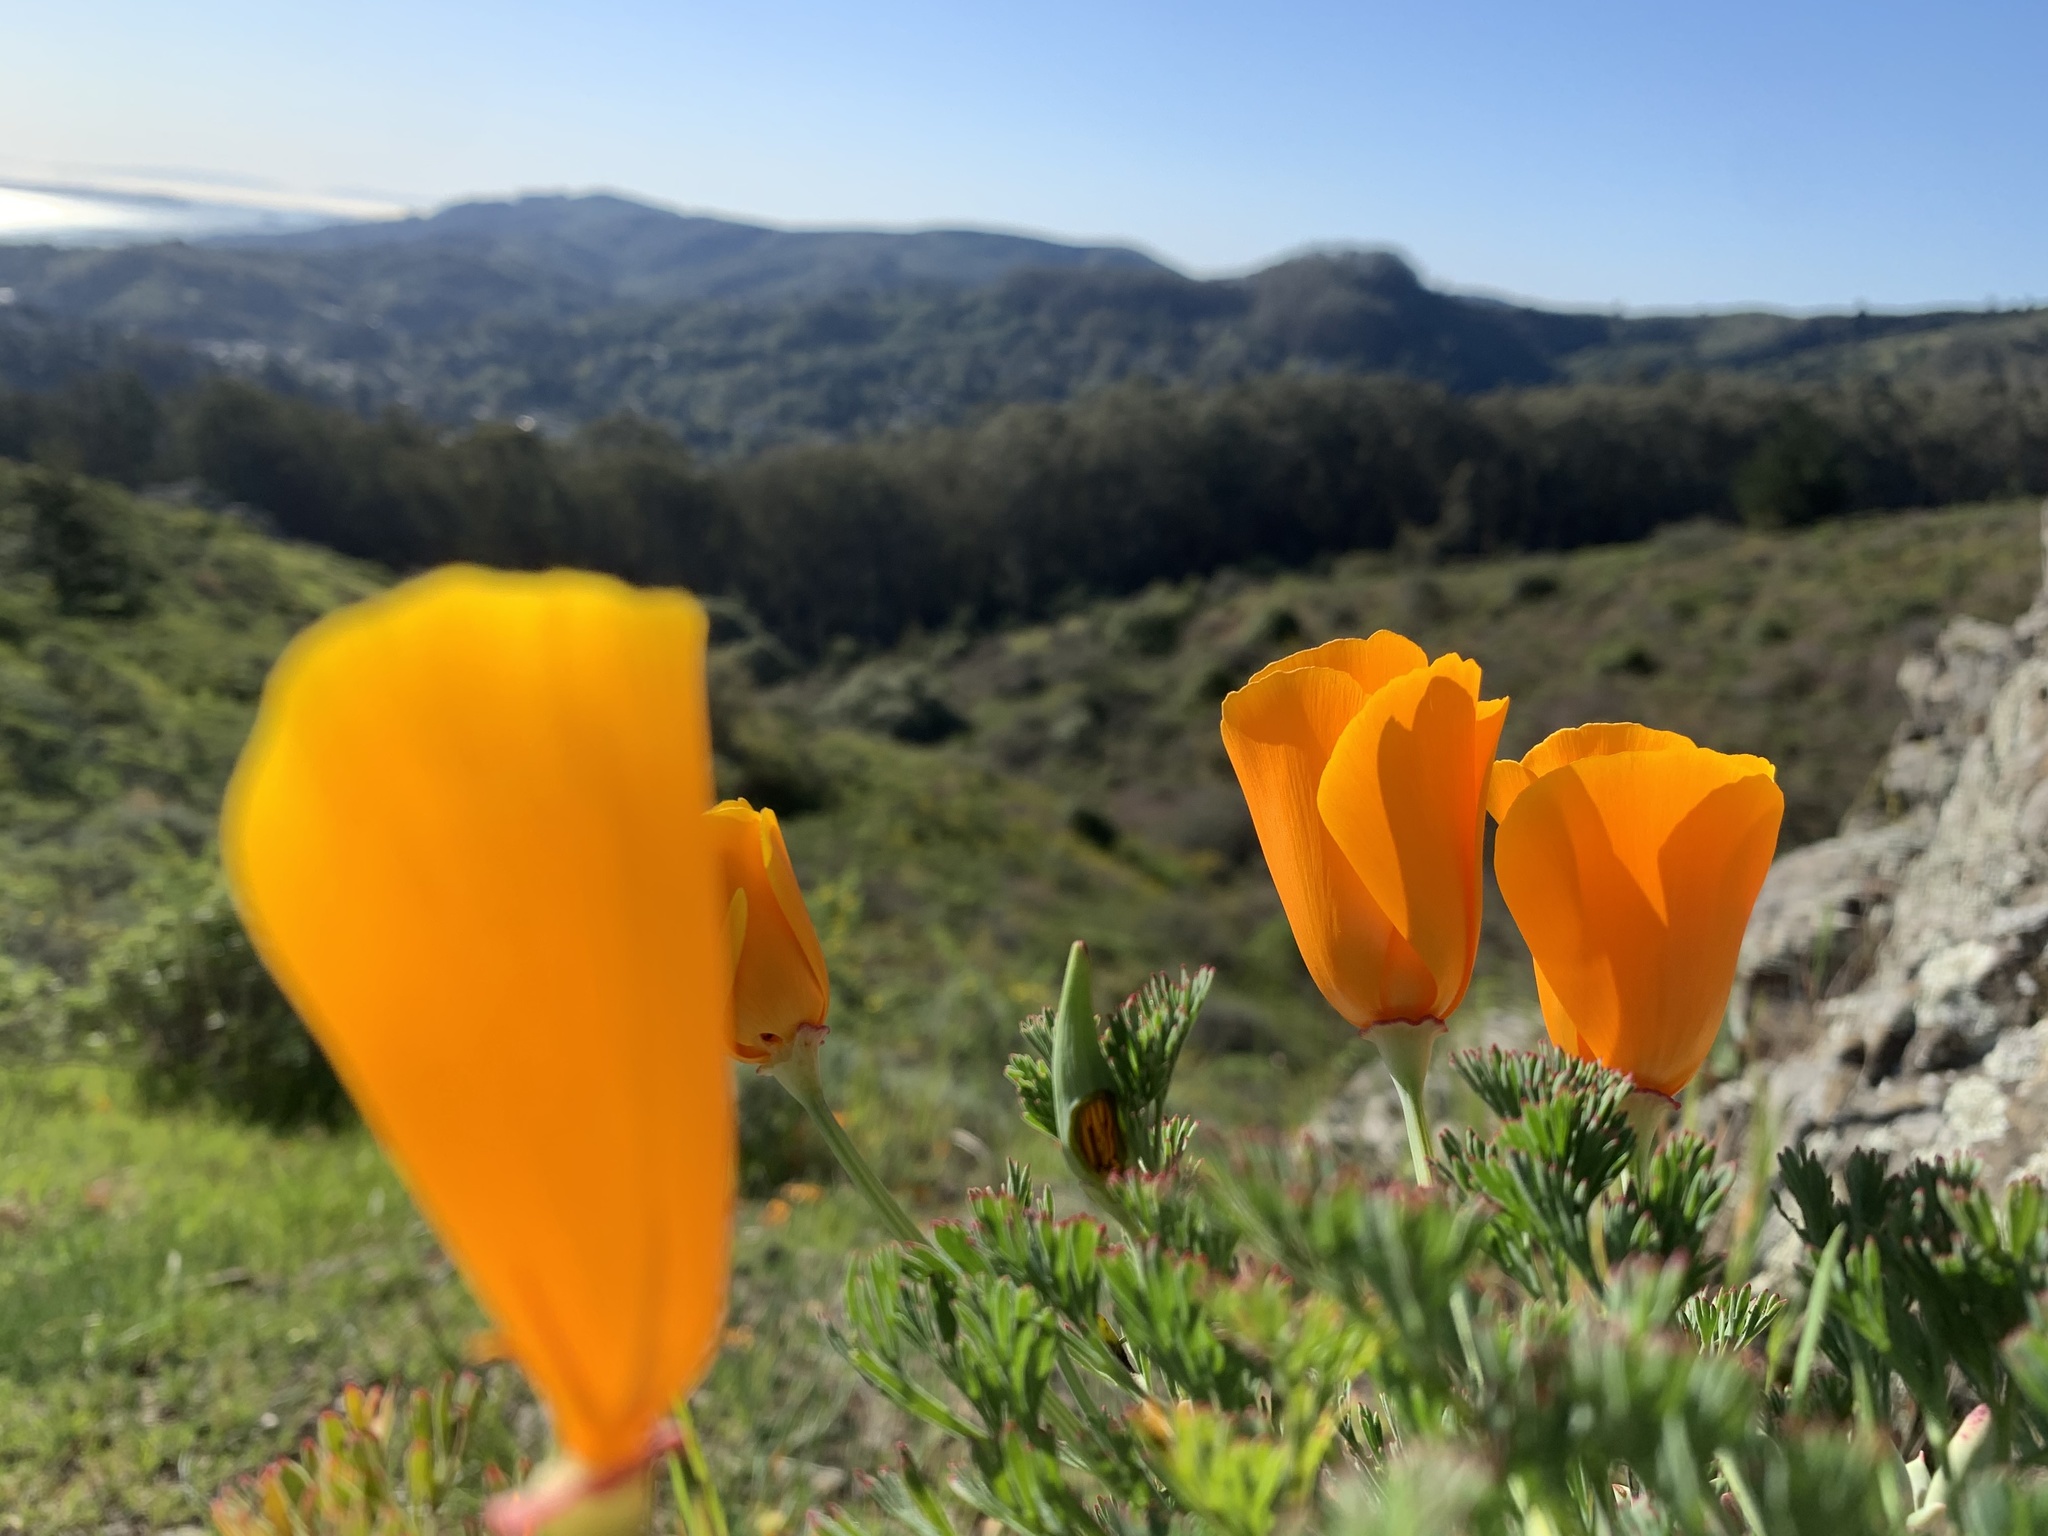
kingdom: Plantae
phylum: Tracheophyta
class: Magnoliopsida
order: Ranunculales
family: Papaveraceae
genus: Eschscholzia
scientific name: Eschscholzia californica
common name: California poppy
